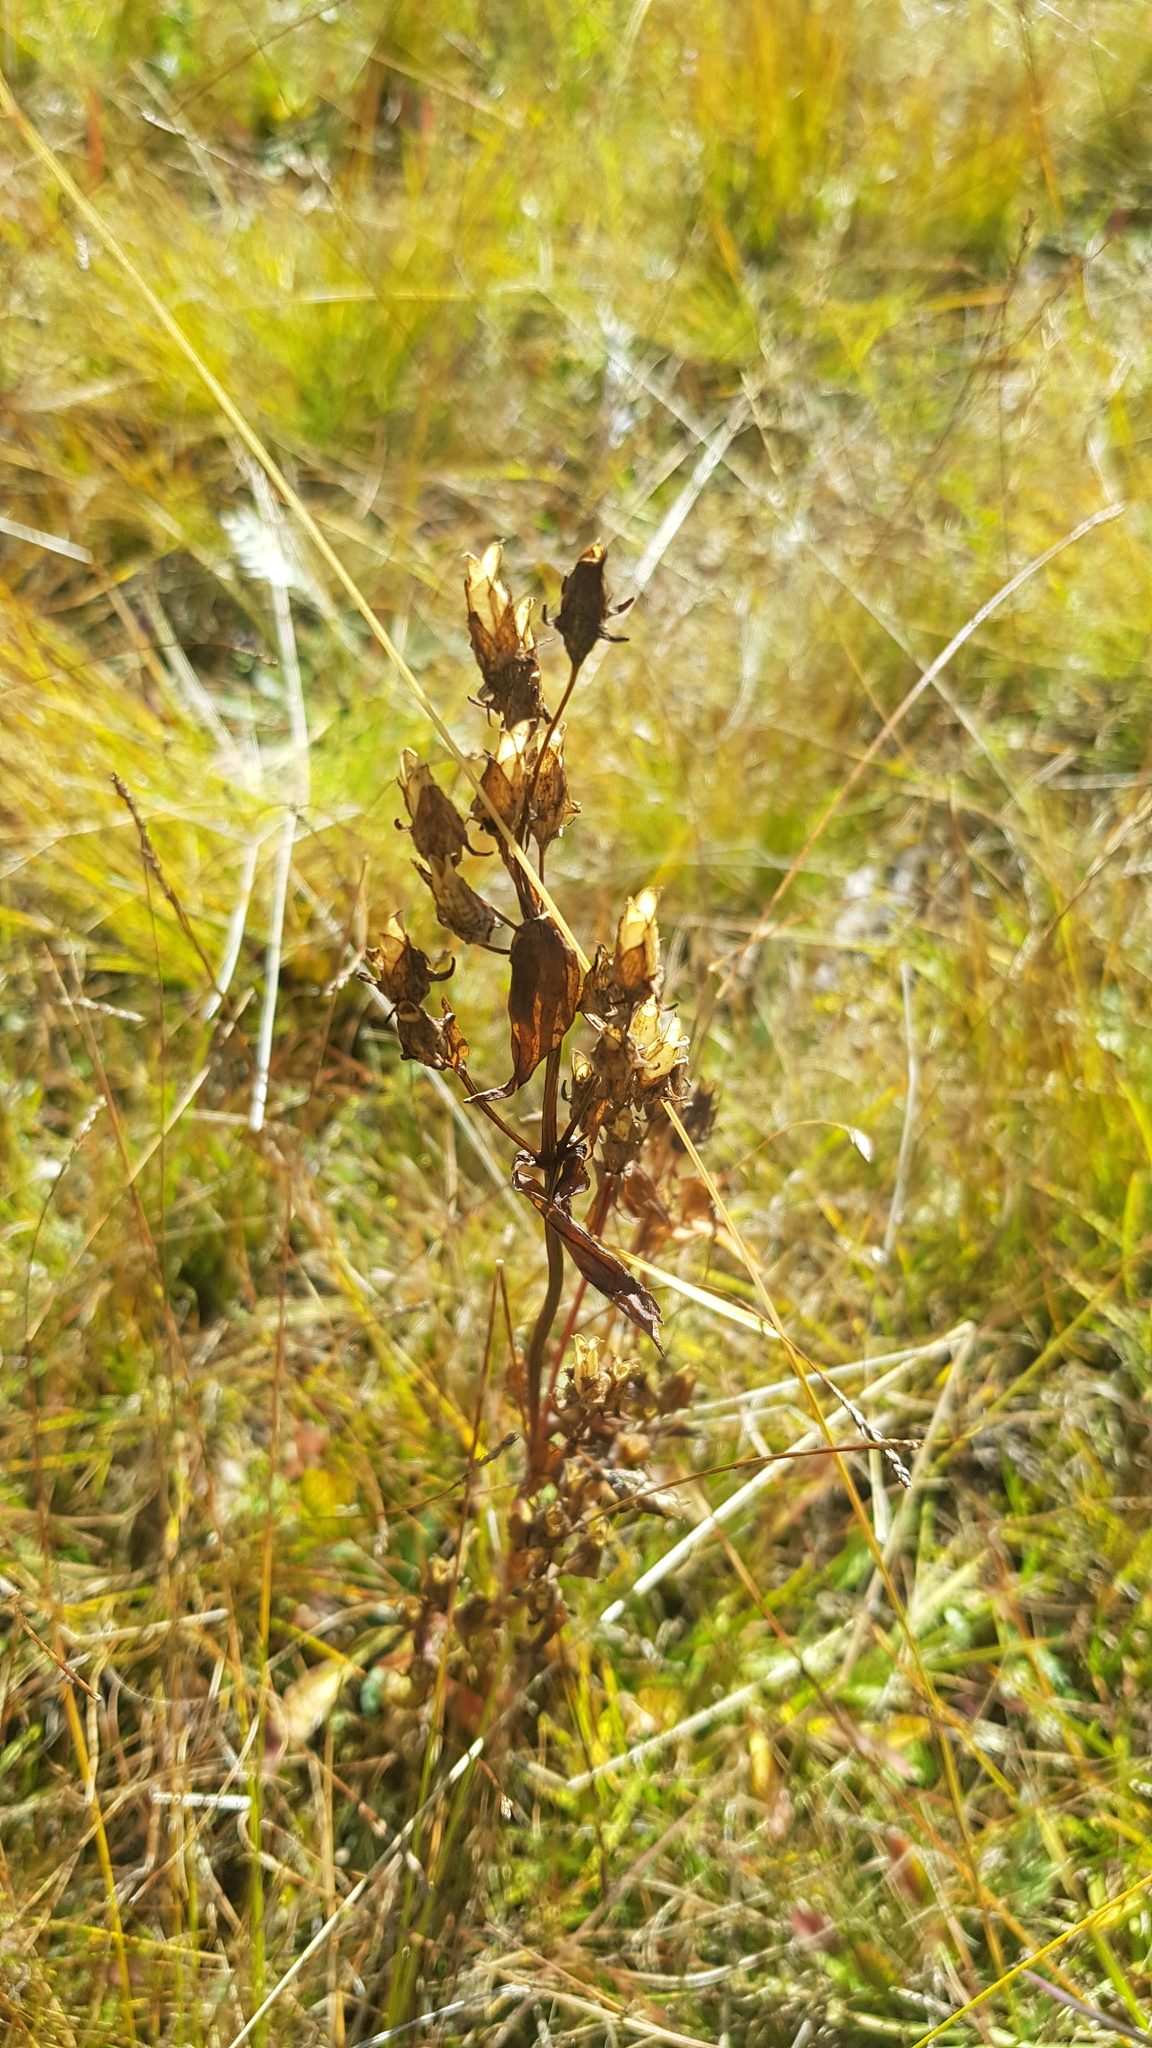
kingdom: Plantae
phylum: Tracheophyta
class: Magnoliopsida
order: Gentianales
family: Gentianaceae
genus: Halenia
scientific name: Halenia corniculata
